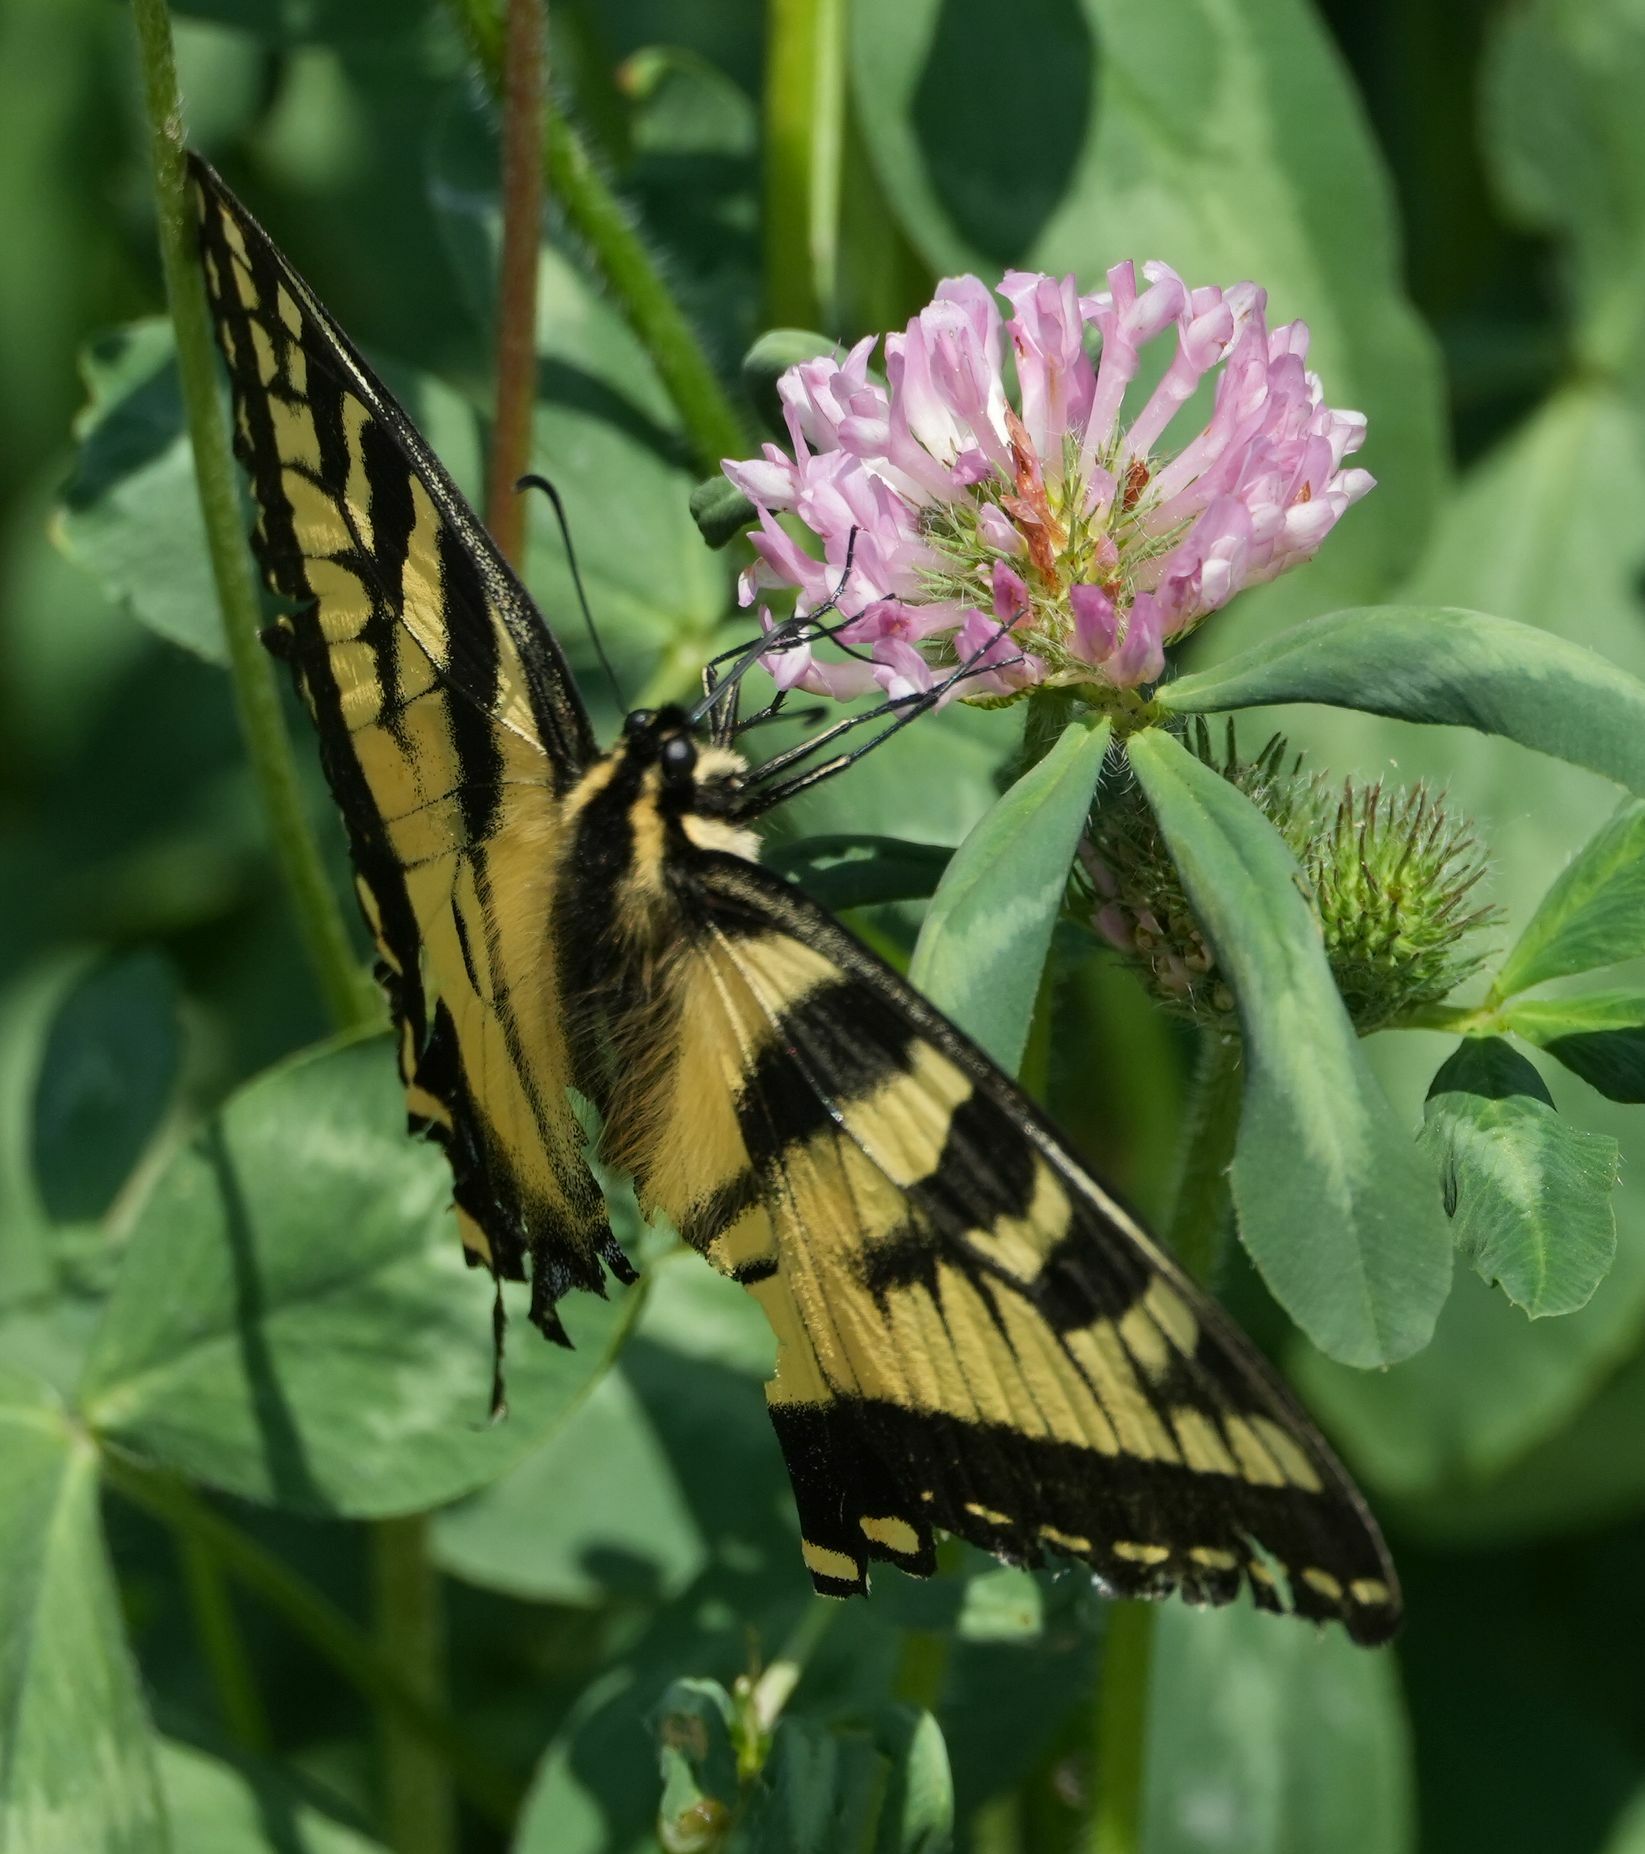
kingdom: Animalia
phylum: Arthropoda
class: Insecta
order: Lepidoptera
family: Papilionidae
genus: Papilio
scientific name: Papilio canadensis
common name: Canadian tiger swallowtail
